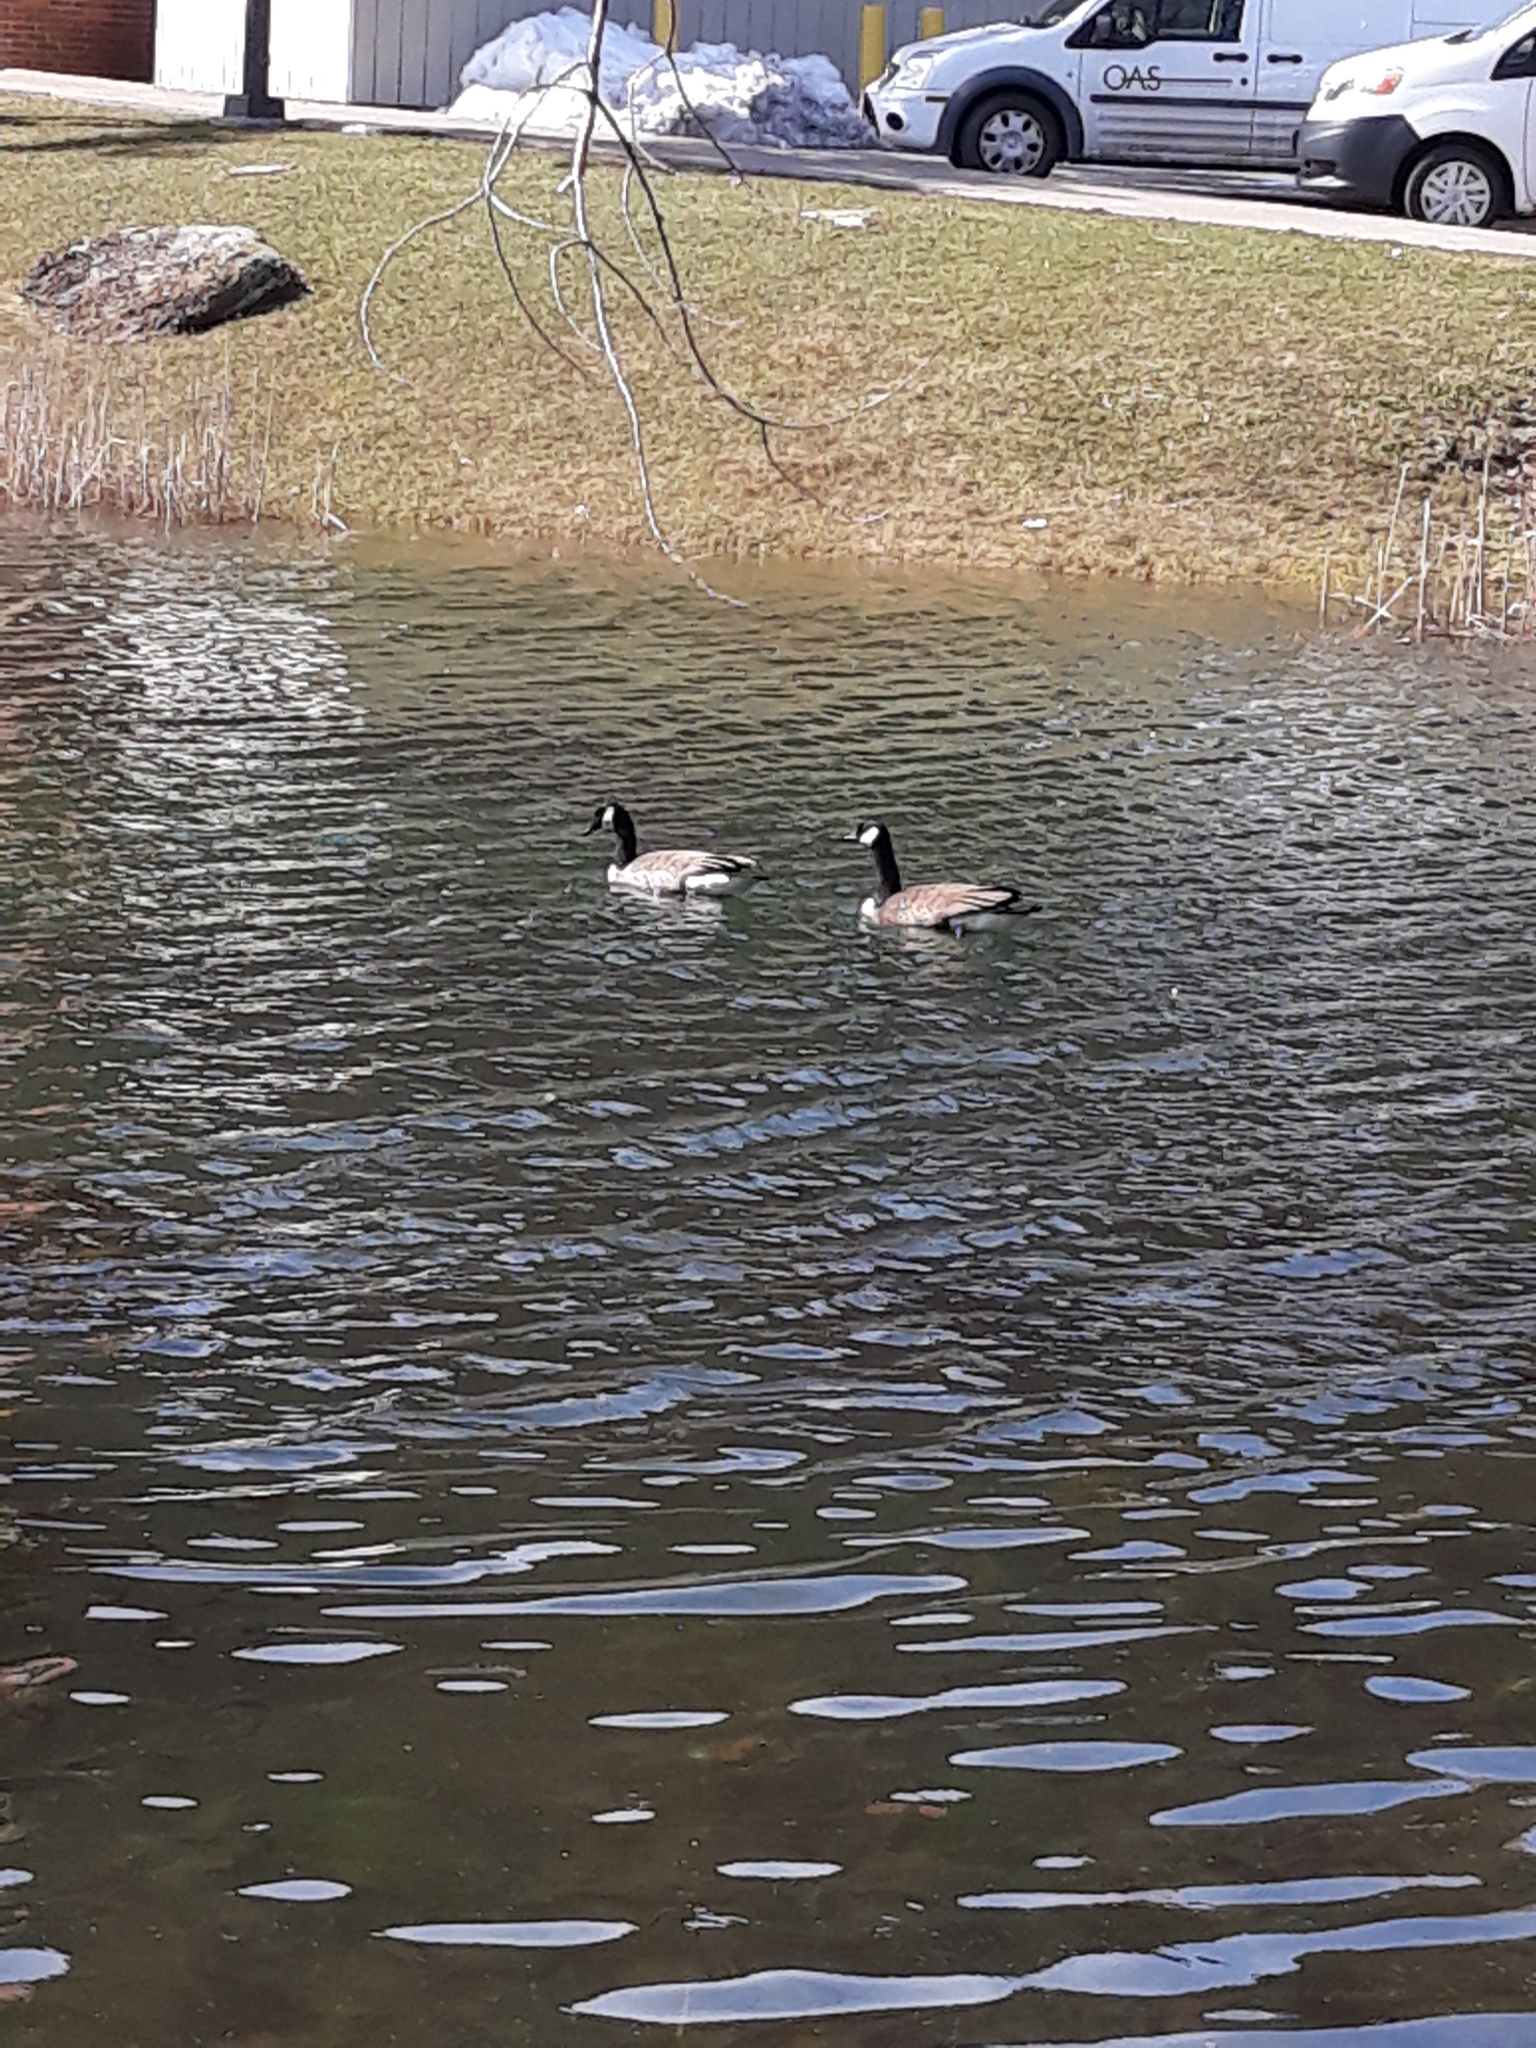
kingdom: Animalia
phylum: Chordata
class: Aves
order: Anseriformes
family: Anatidae
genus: Branta
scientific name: Branta canadensis
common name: Canada goose
